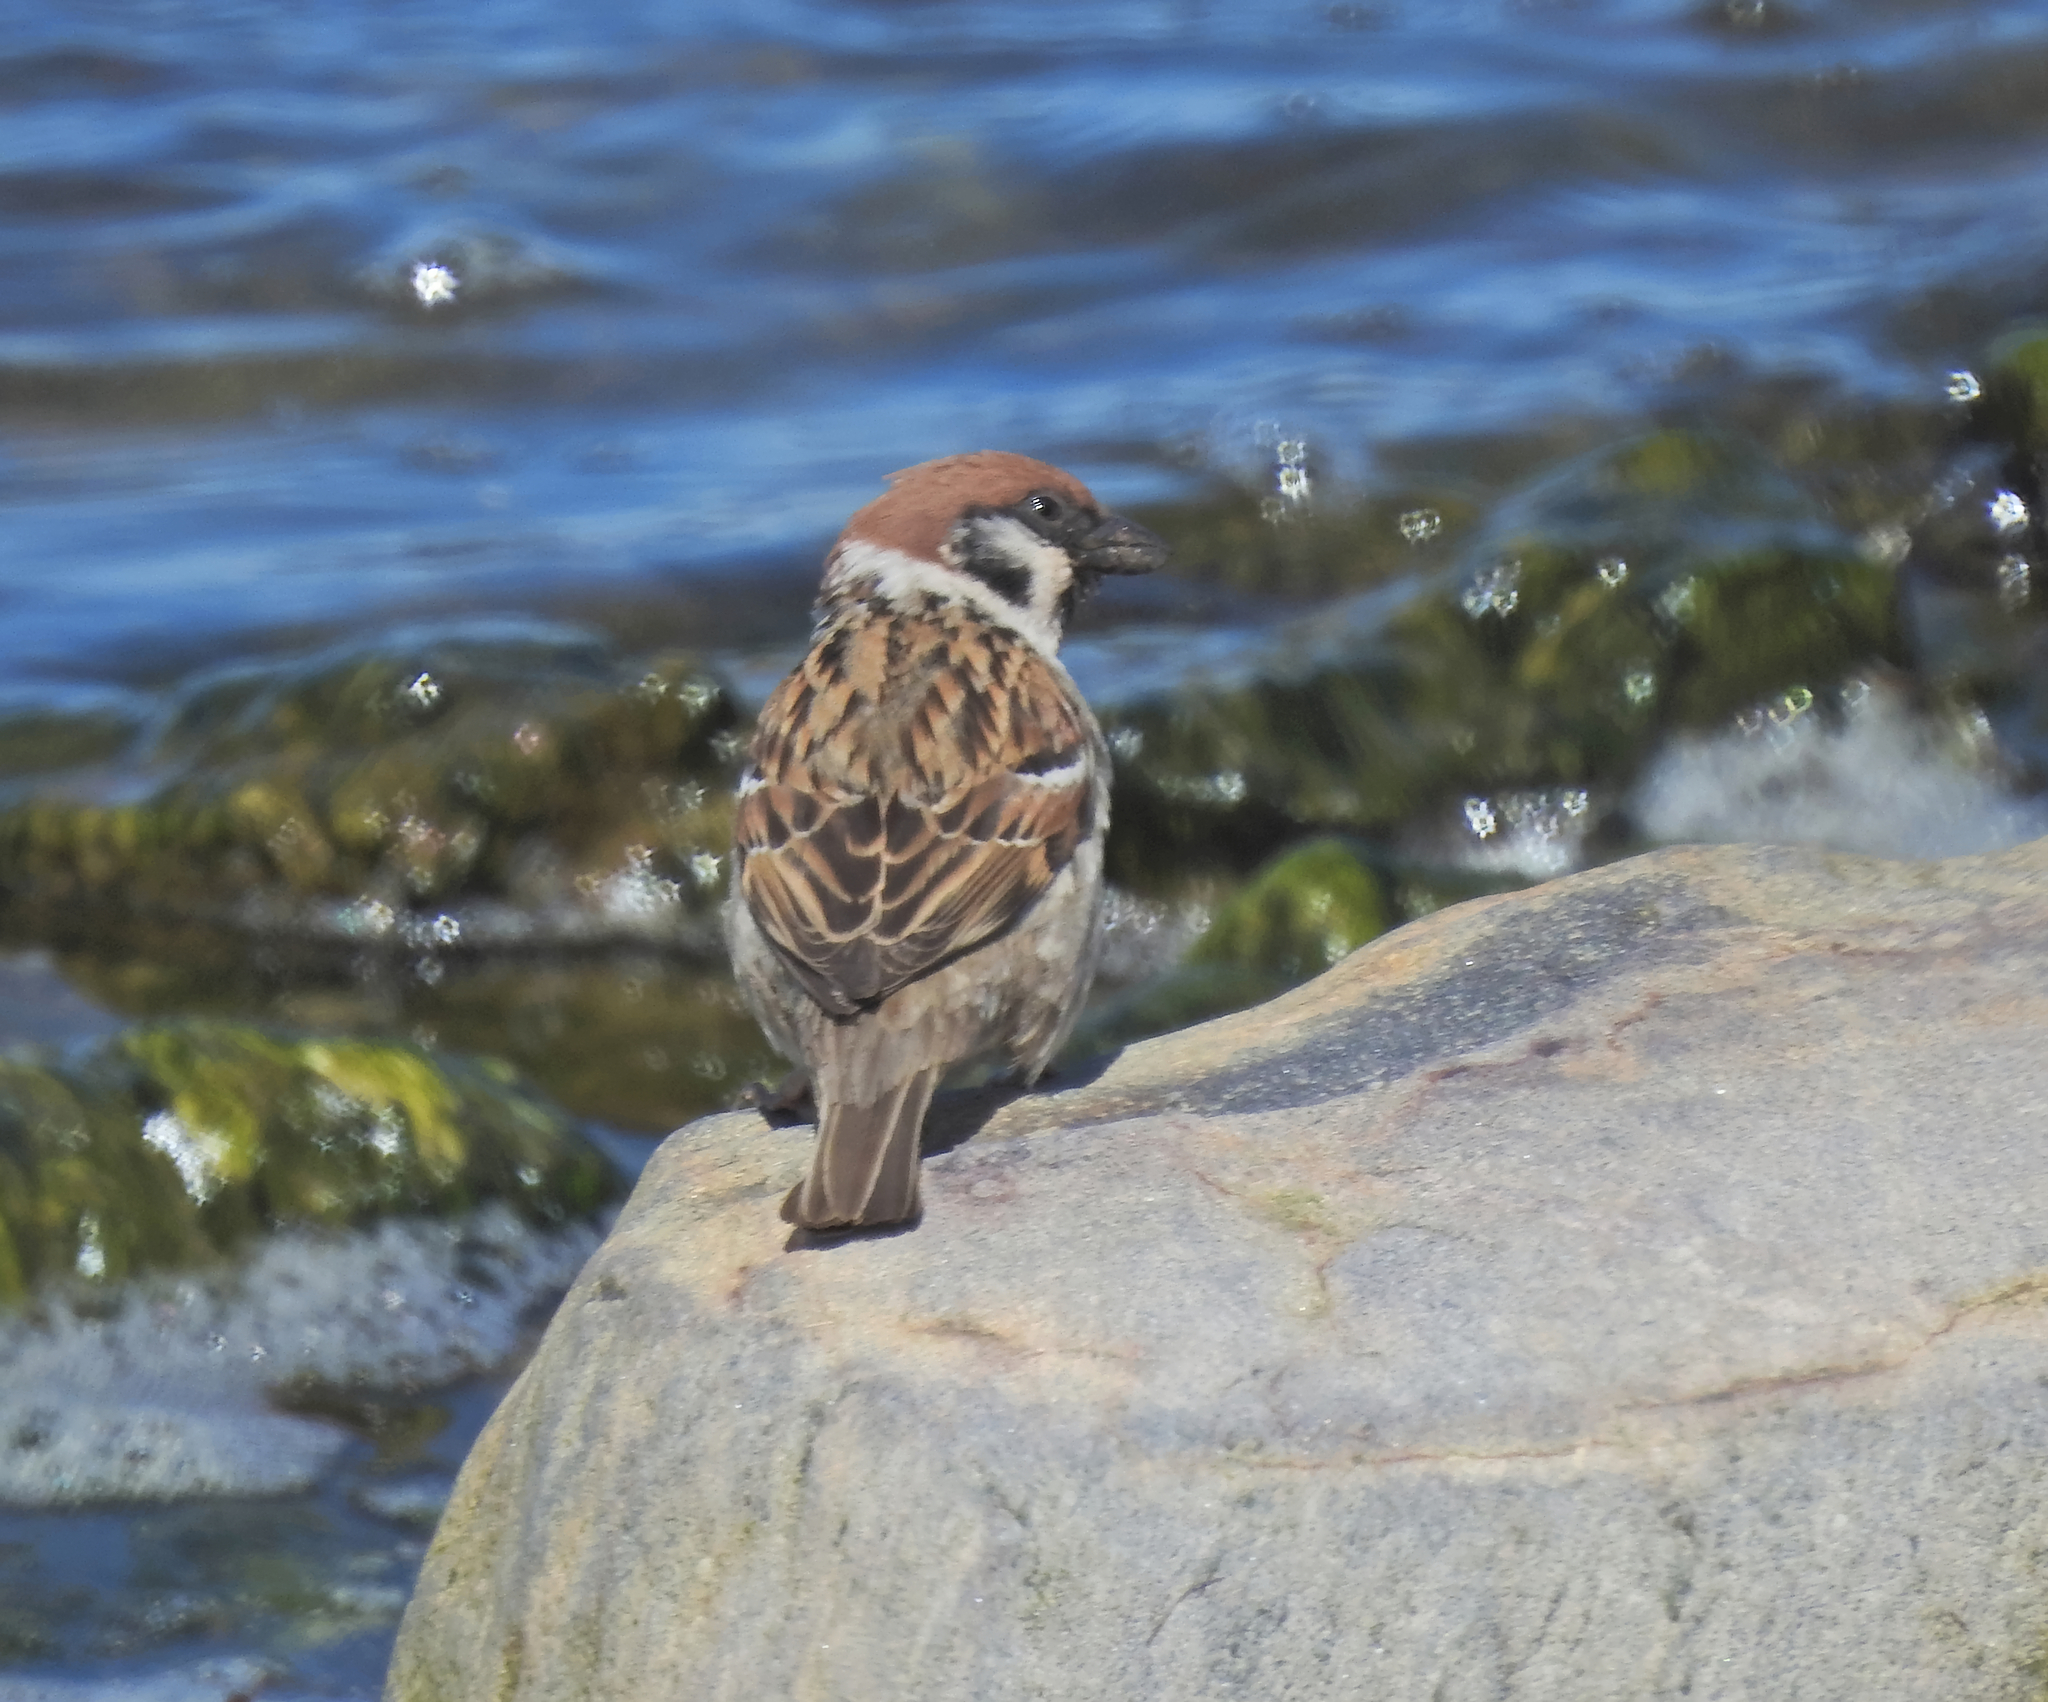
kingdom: Animalia
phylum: Chordata
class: Aves
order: Passeriformes
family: Passeridae
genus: Passer
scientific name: Passer montanus
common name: Eurasian tree sparrow
